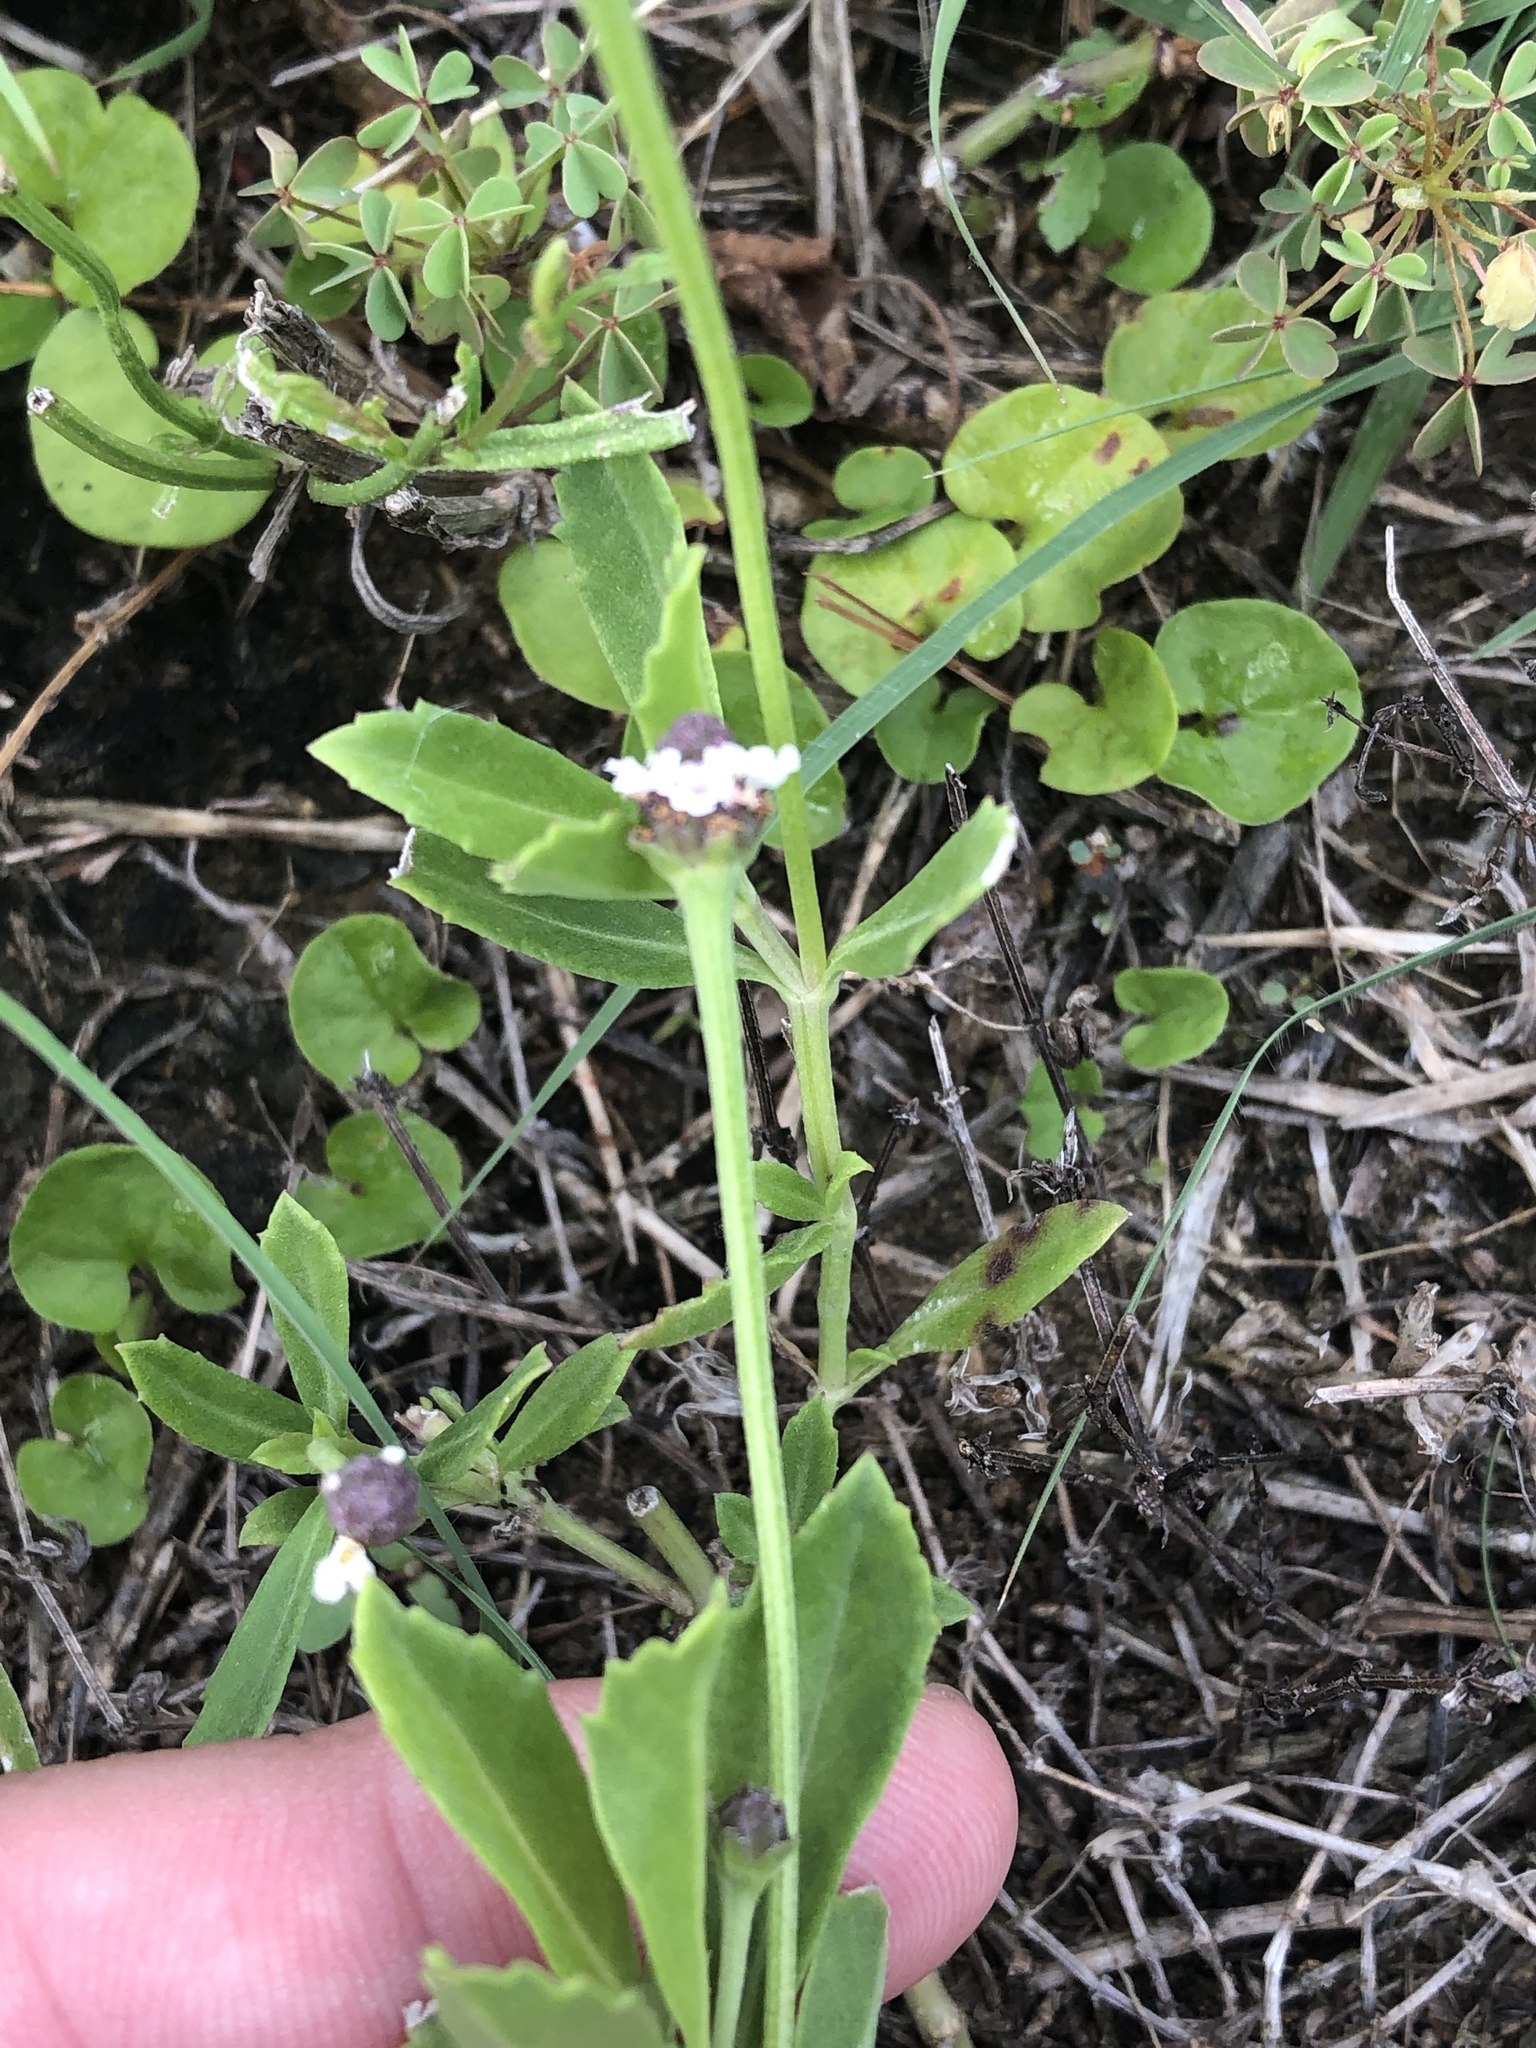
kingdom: Plantae
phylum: Tracheophyta
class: Magnoliopsida
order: Lamiales
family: Verbenaceae
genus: Phyla
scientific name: Phyla nodiflora
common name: Frogfruit
